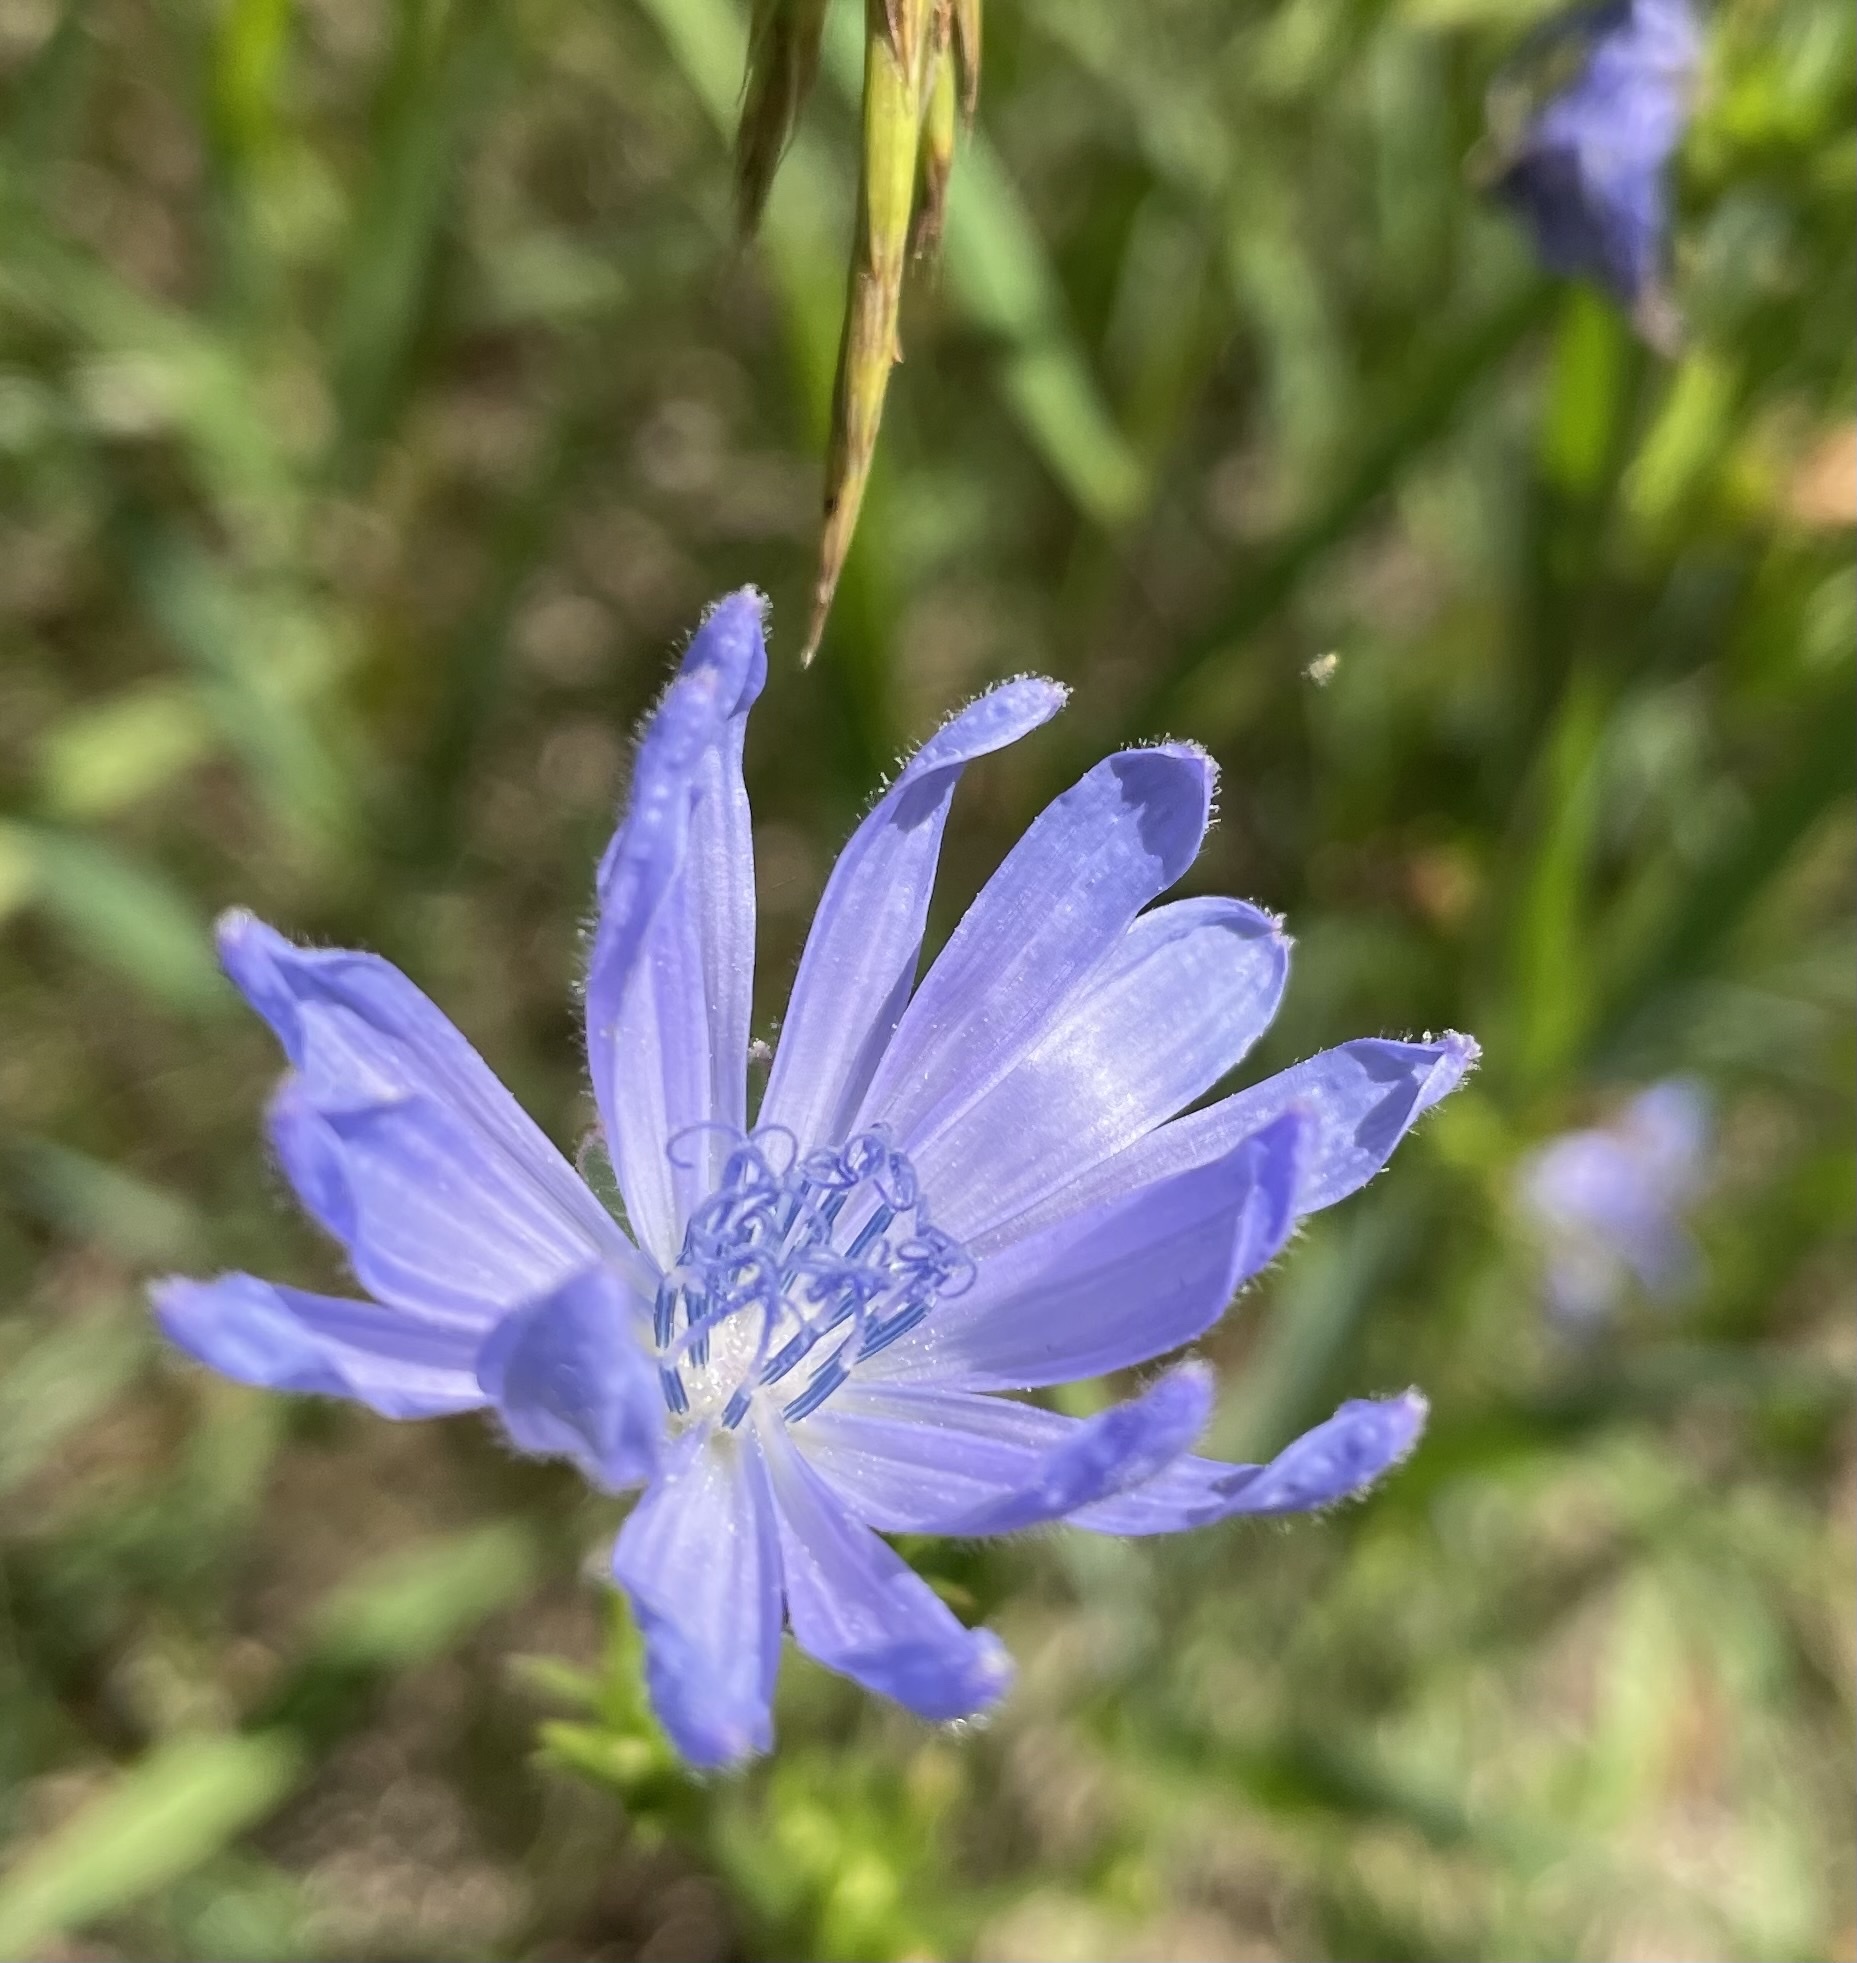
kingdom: Plantae
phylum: Tracheophyta
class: Magnoliopsida
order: Asterales
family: Asteraceae
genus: Cichorium
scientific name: Cichorium intybus
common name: Chicory
